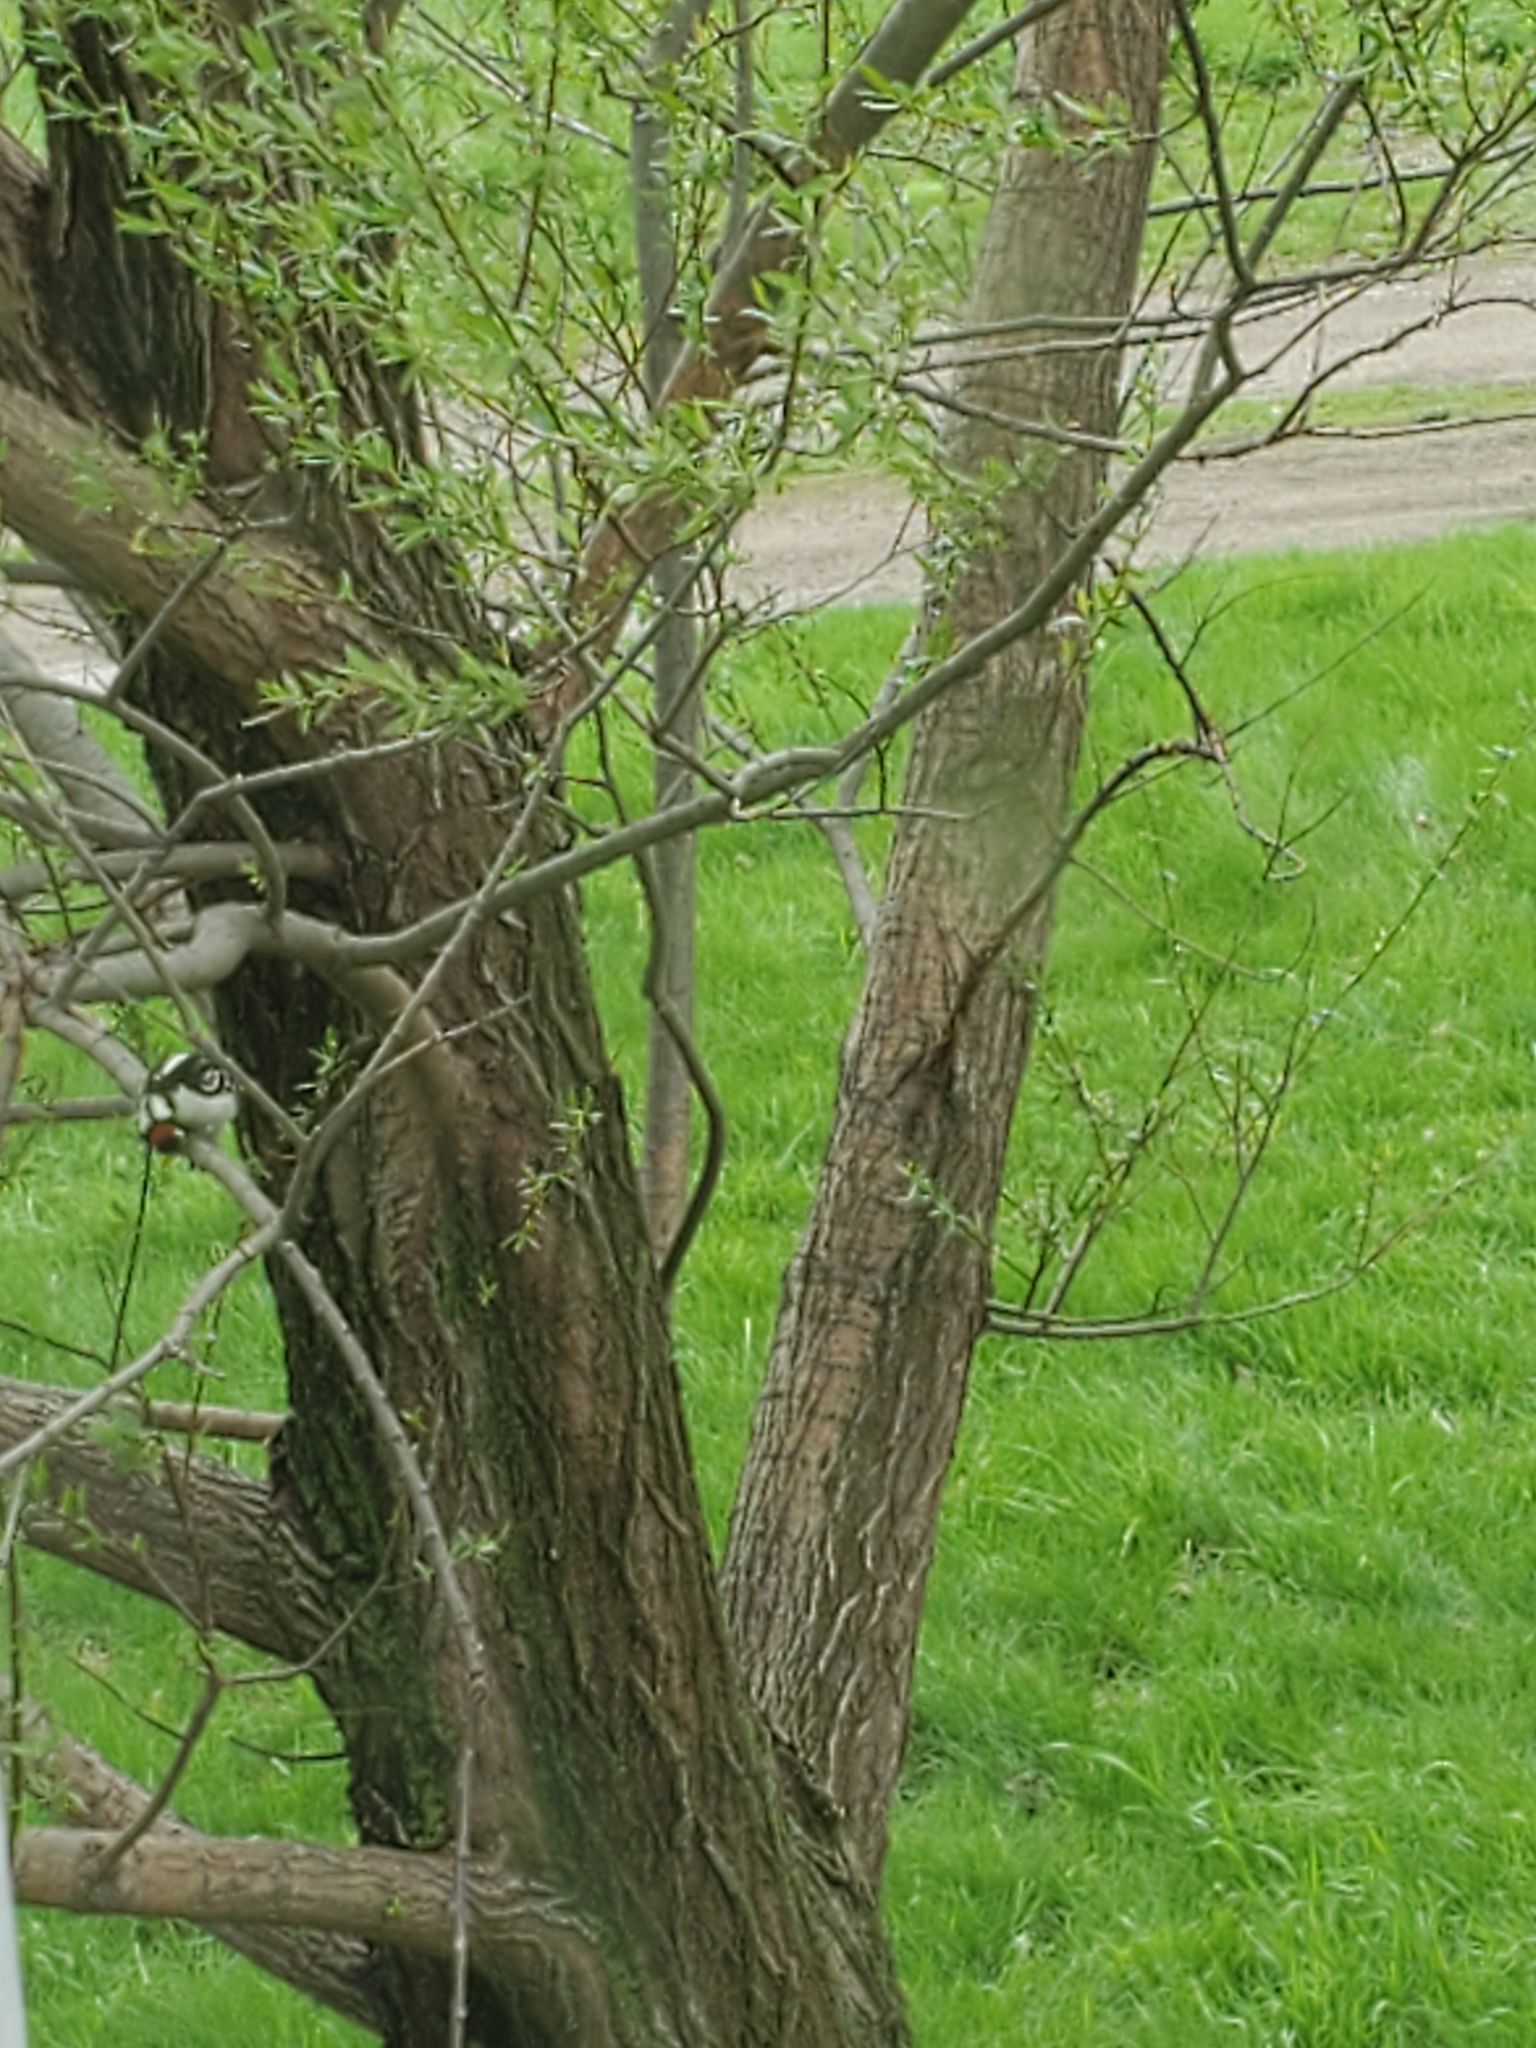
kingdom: Animalia
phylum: Chordata
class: Aves
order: Piciformes
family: Picidae
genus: Dryobates
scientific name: Dryobates pubescens
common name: Downy woodpecker
